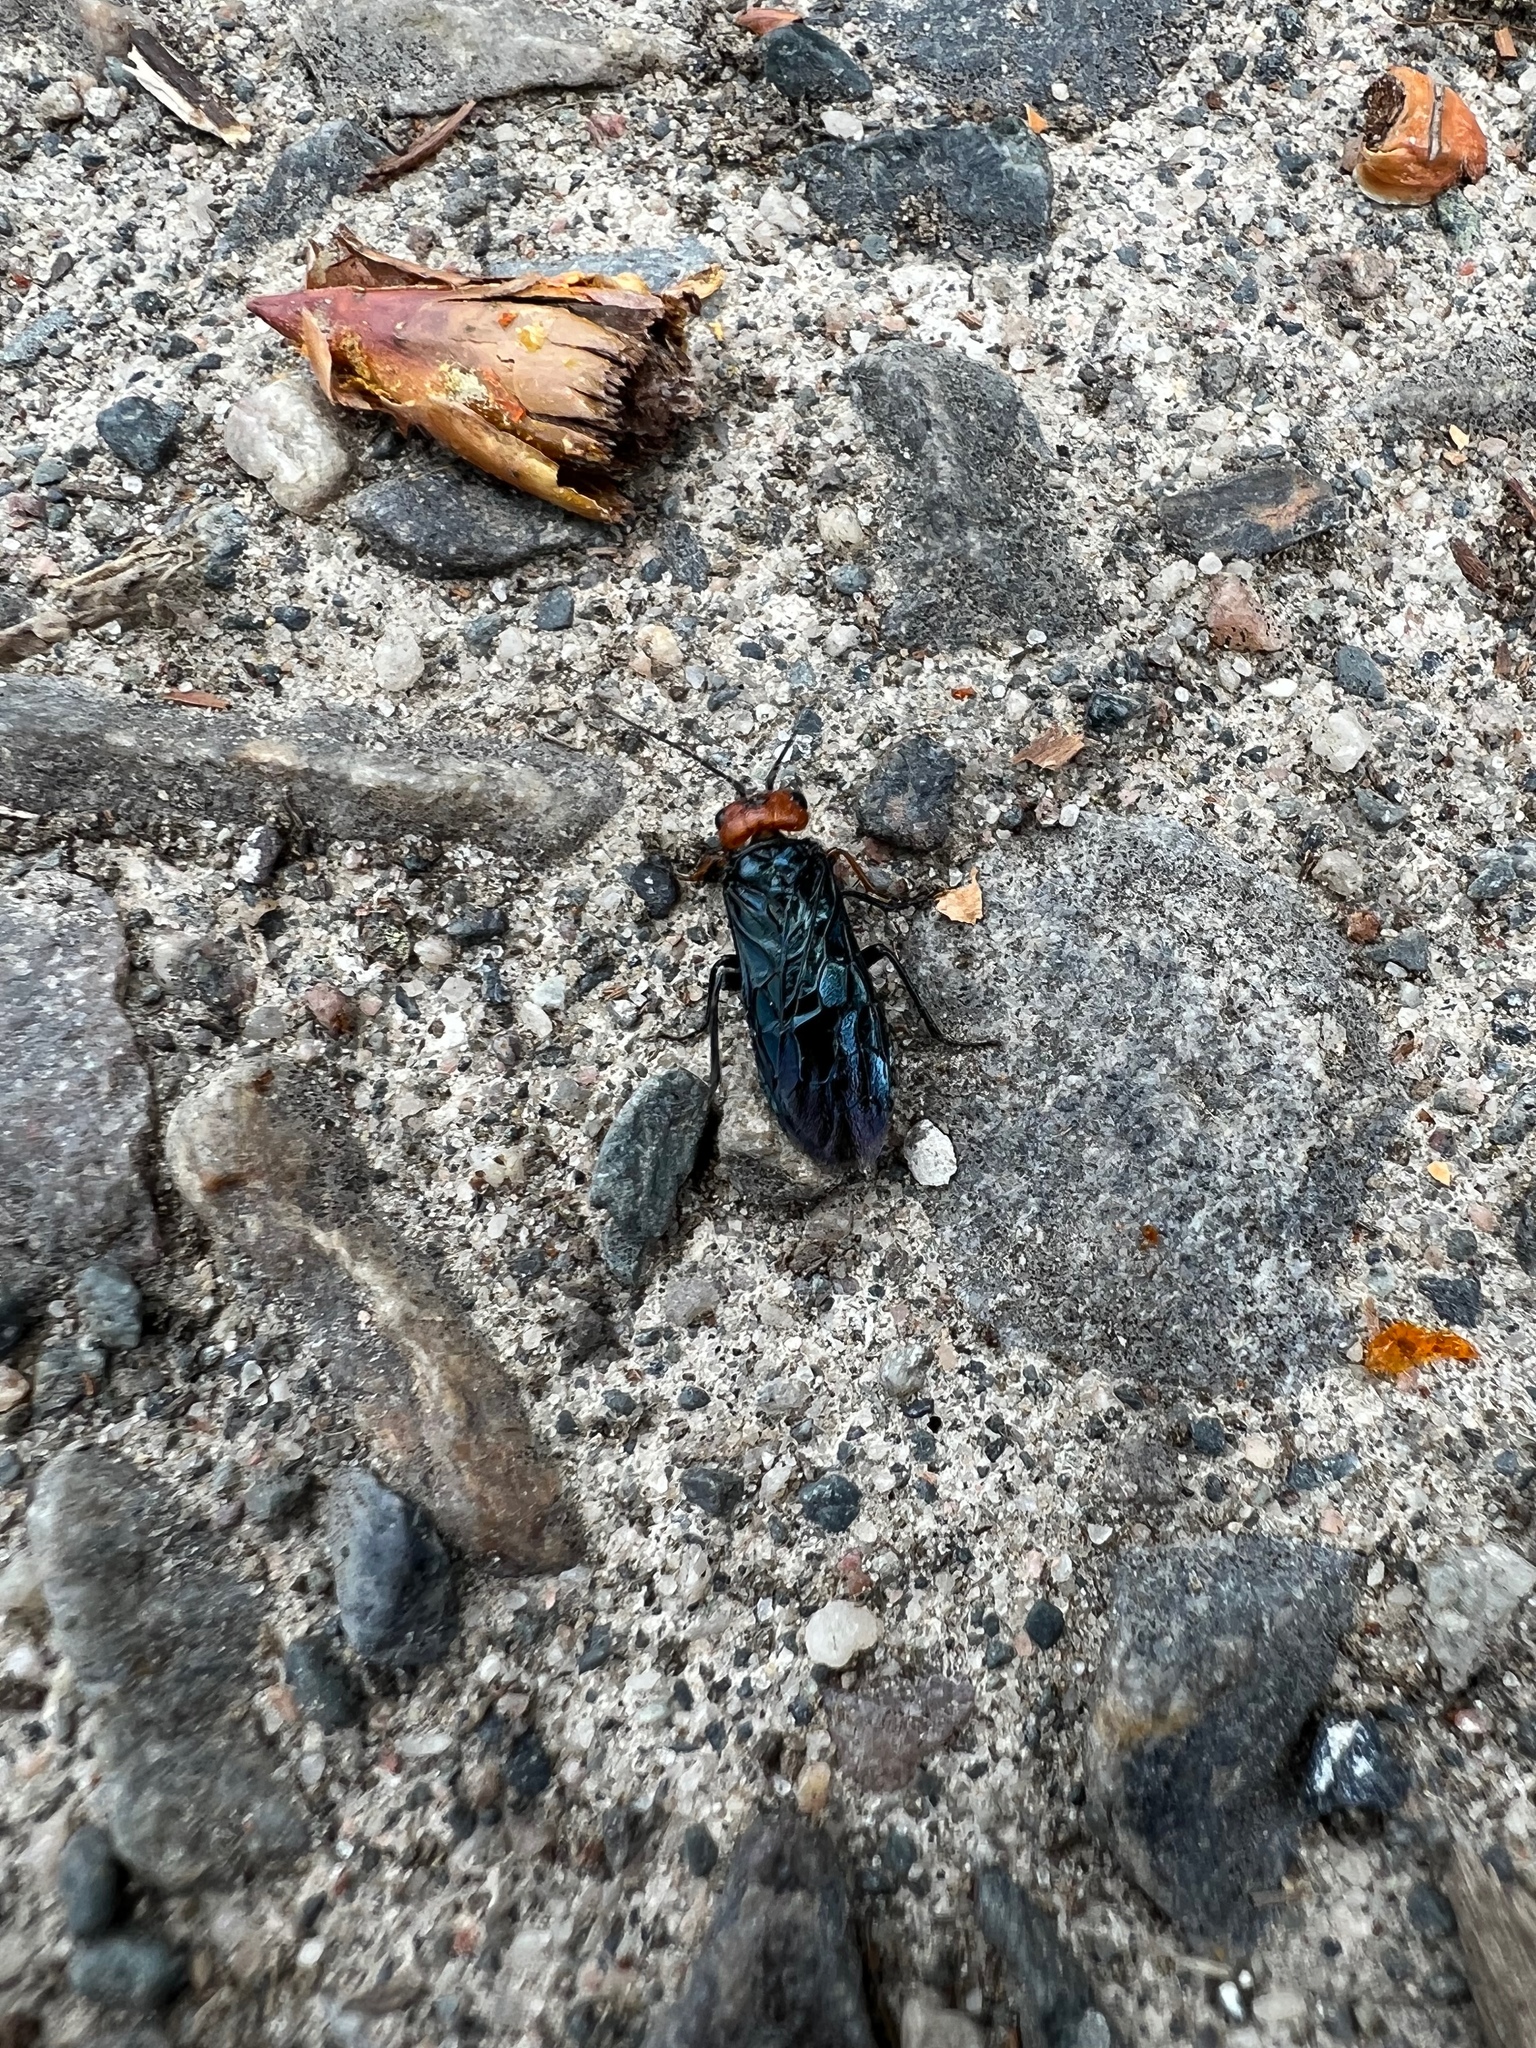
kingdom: Animalia
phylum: Arthropoda
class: Insecta
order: Hymenoptera
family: Pamphiliidae
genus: Acantholyda
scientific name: Acantholyda erythrocephala
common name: Pine false webworm
